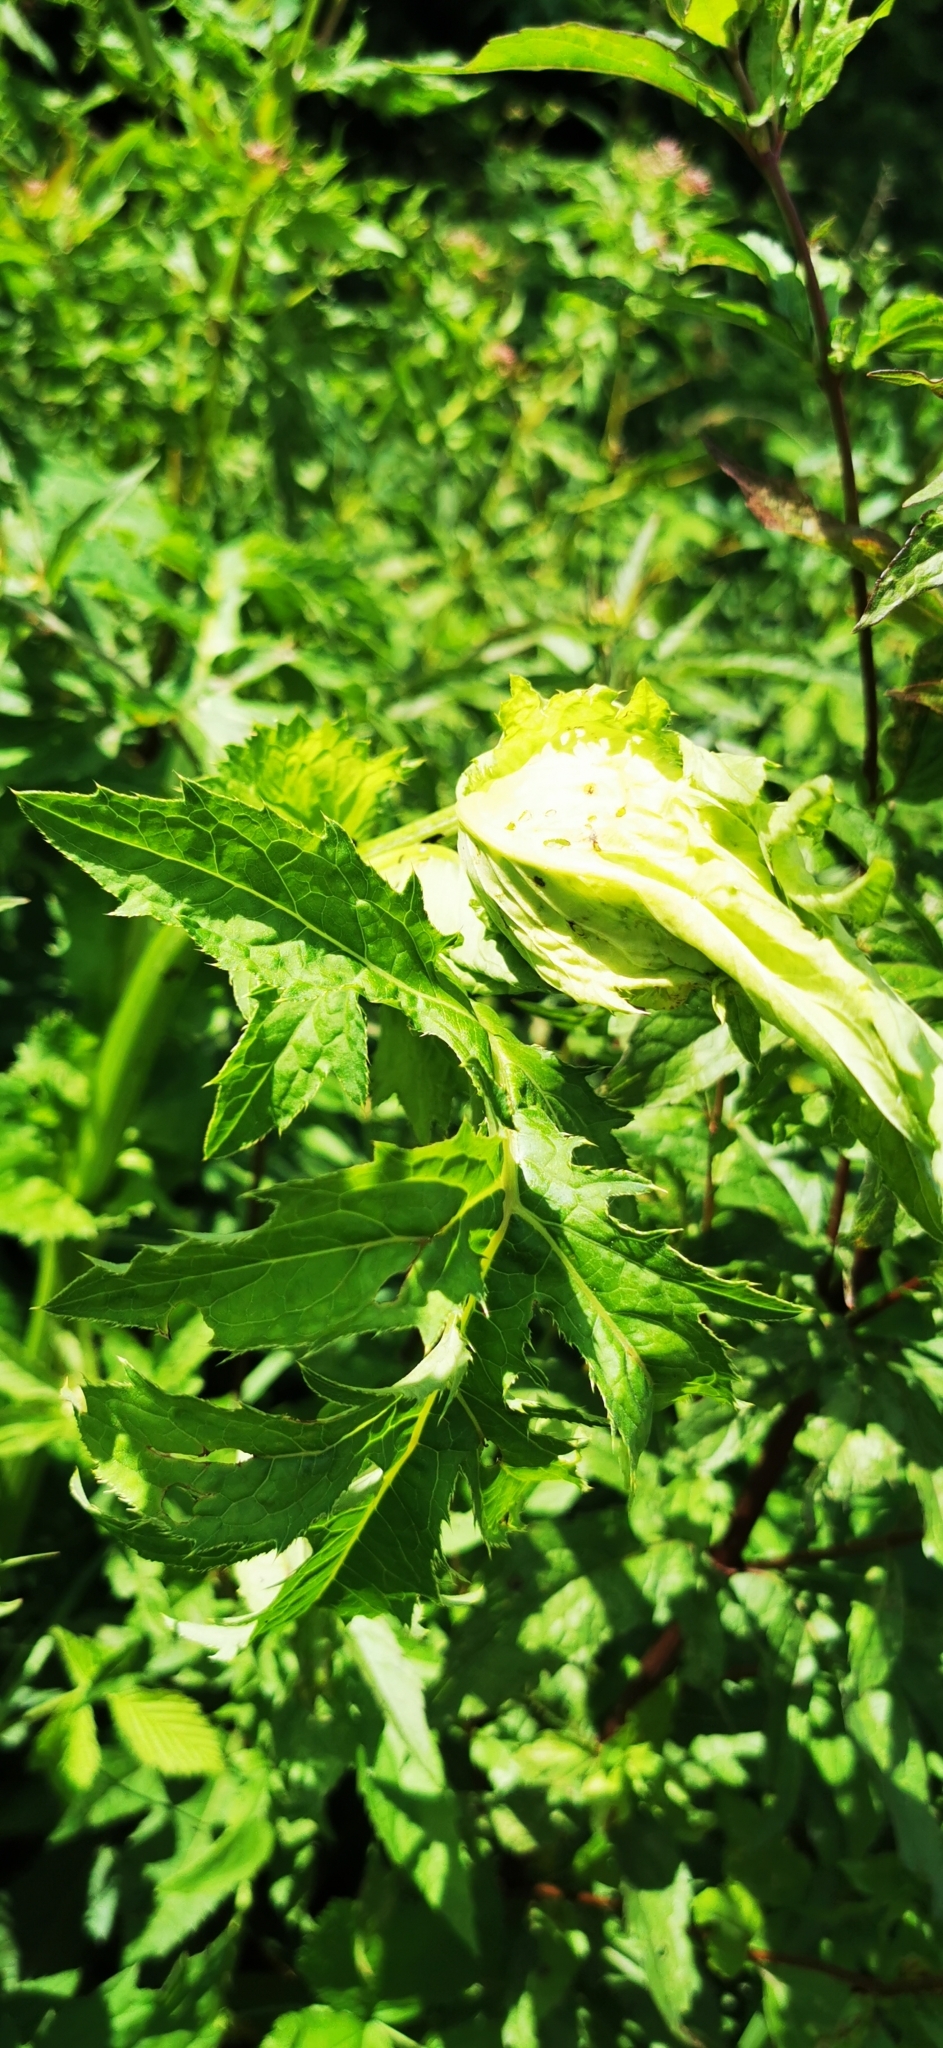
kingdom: Plantae
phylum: Tracheophyta
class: Magnoliopsida
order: Asterales
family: Asteraceae
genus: Cirsium
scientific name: Cirsium oleraceum
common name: Cabbage thistle
